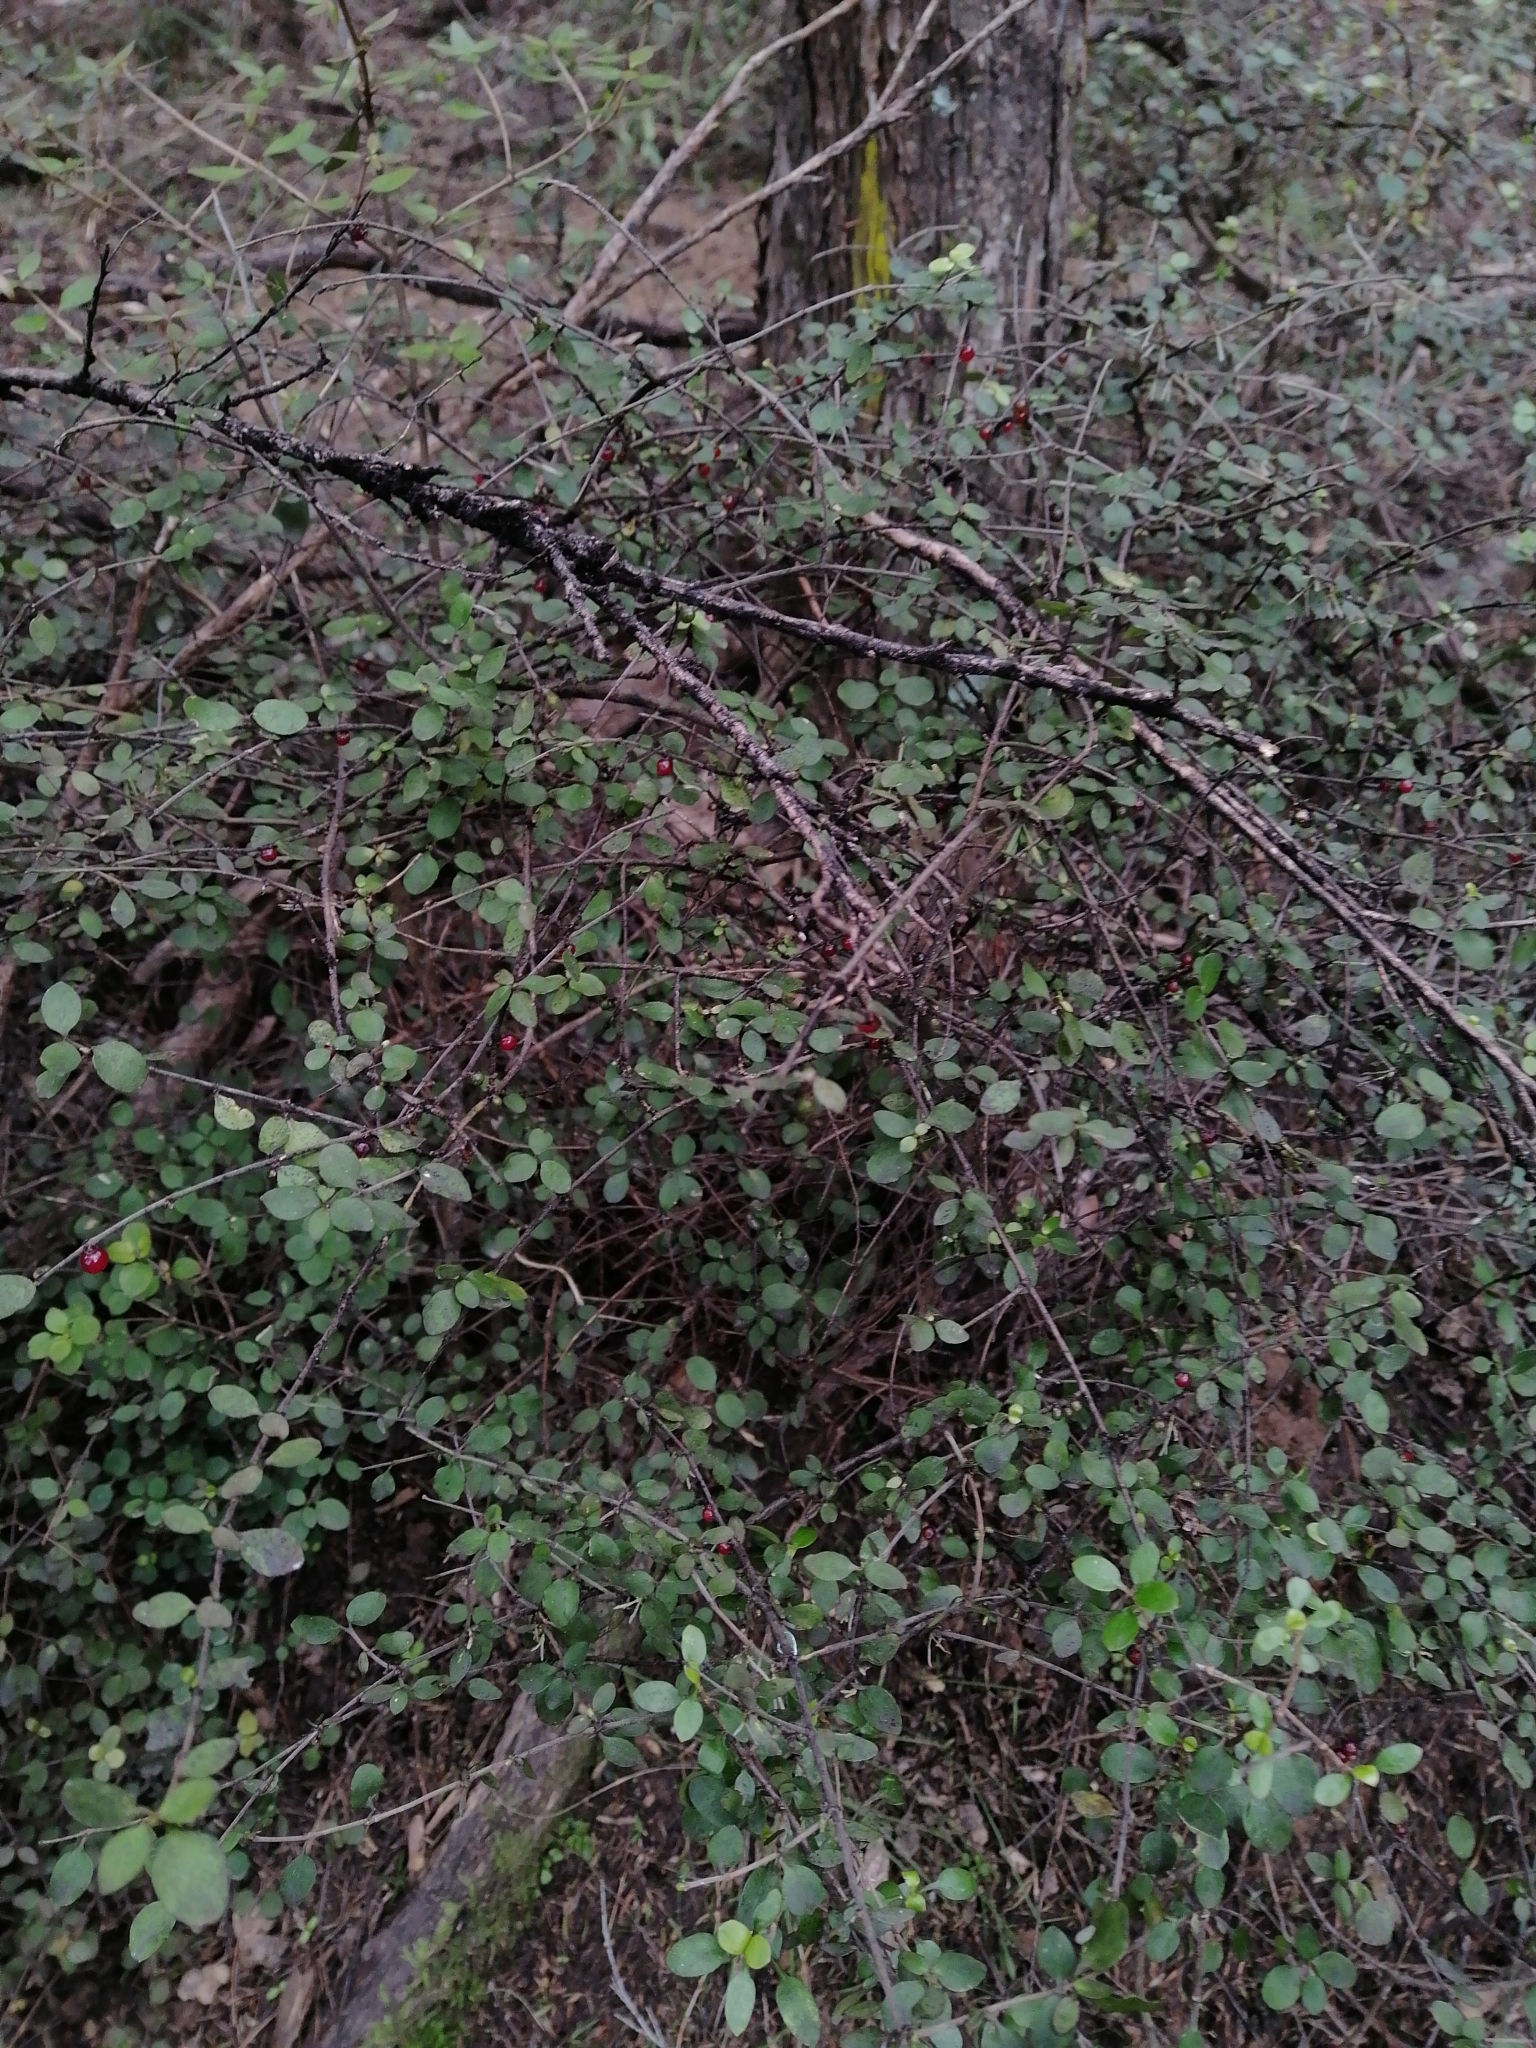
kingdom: Plantae
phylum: Tracheophyta
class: Magnoliopsida
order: Gentianales
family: Rubiaceae
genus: Coprosma
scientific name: Coprosma rhamnoides
